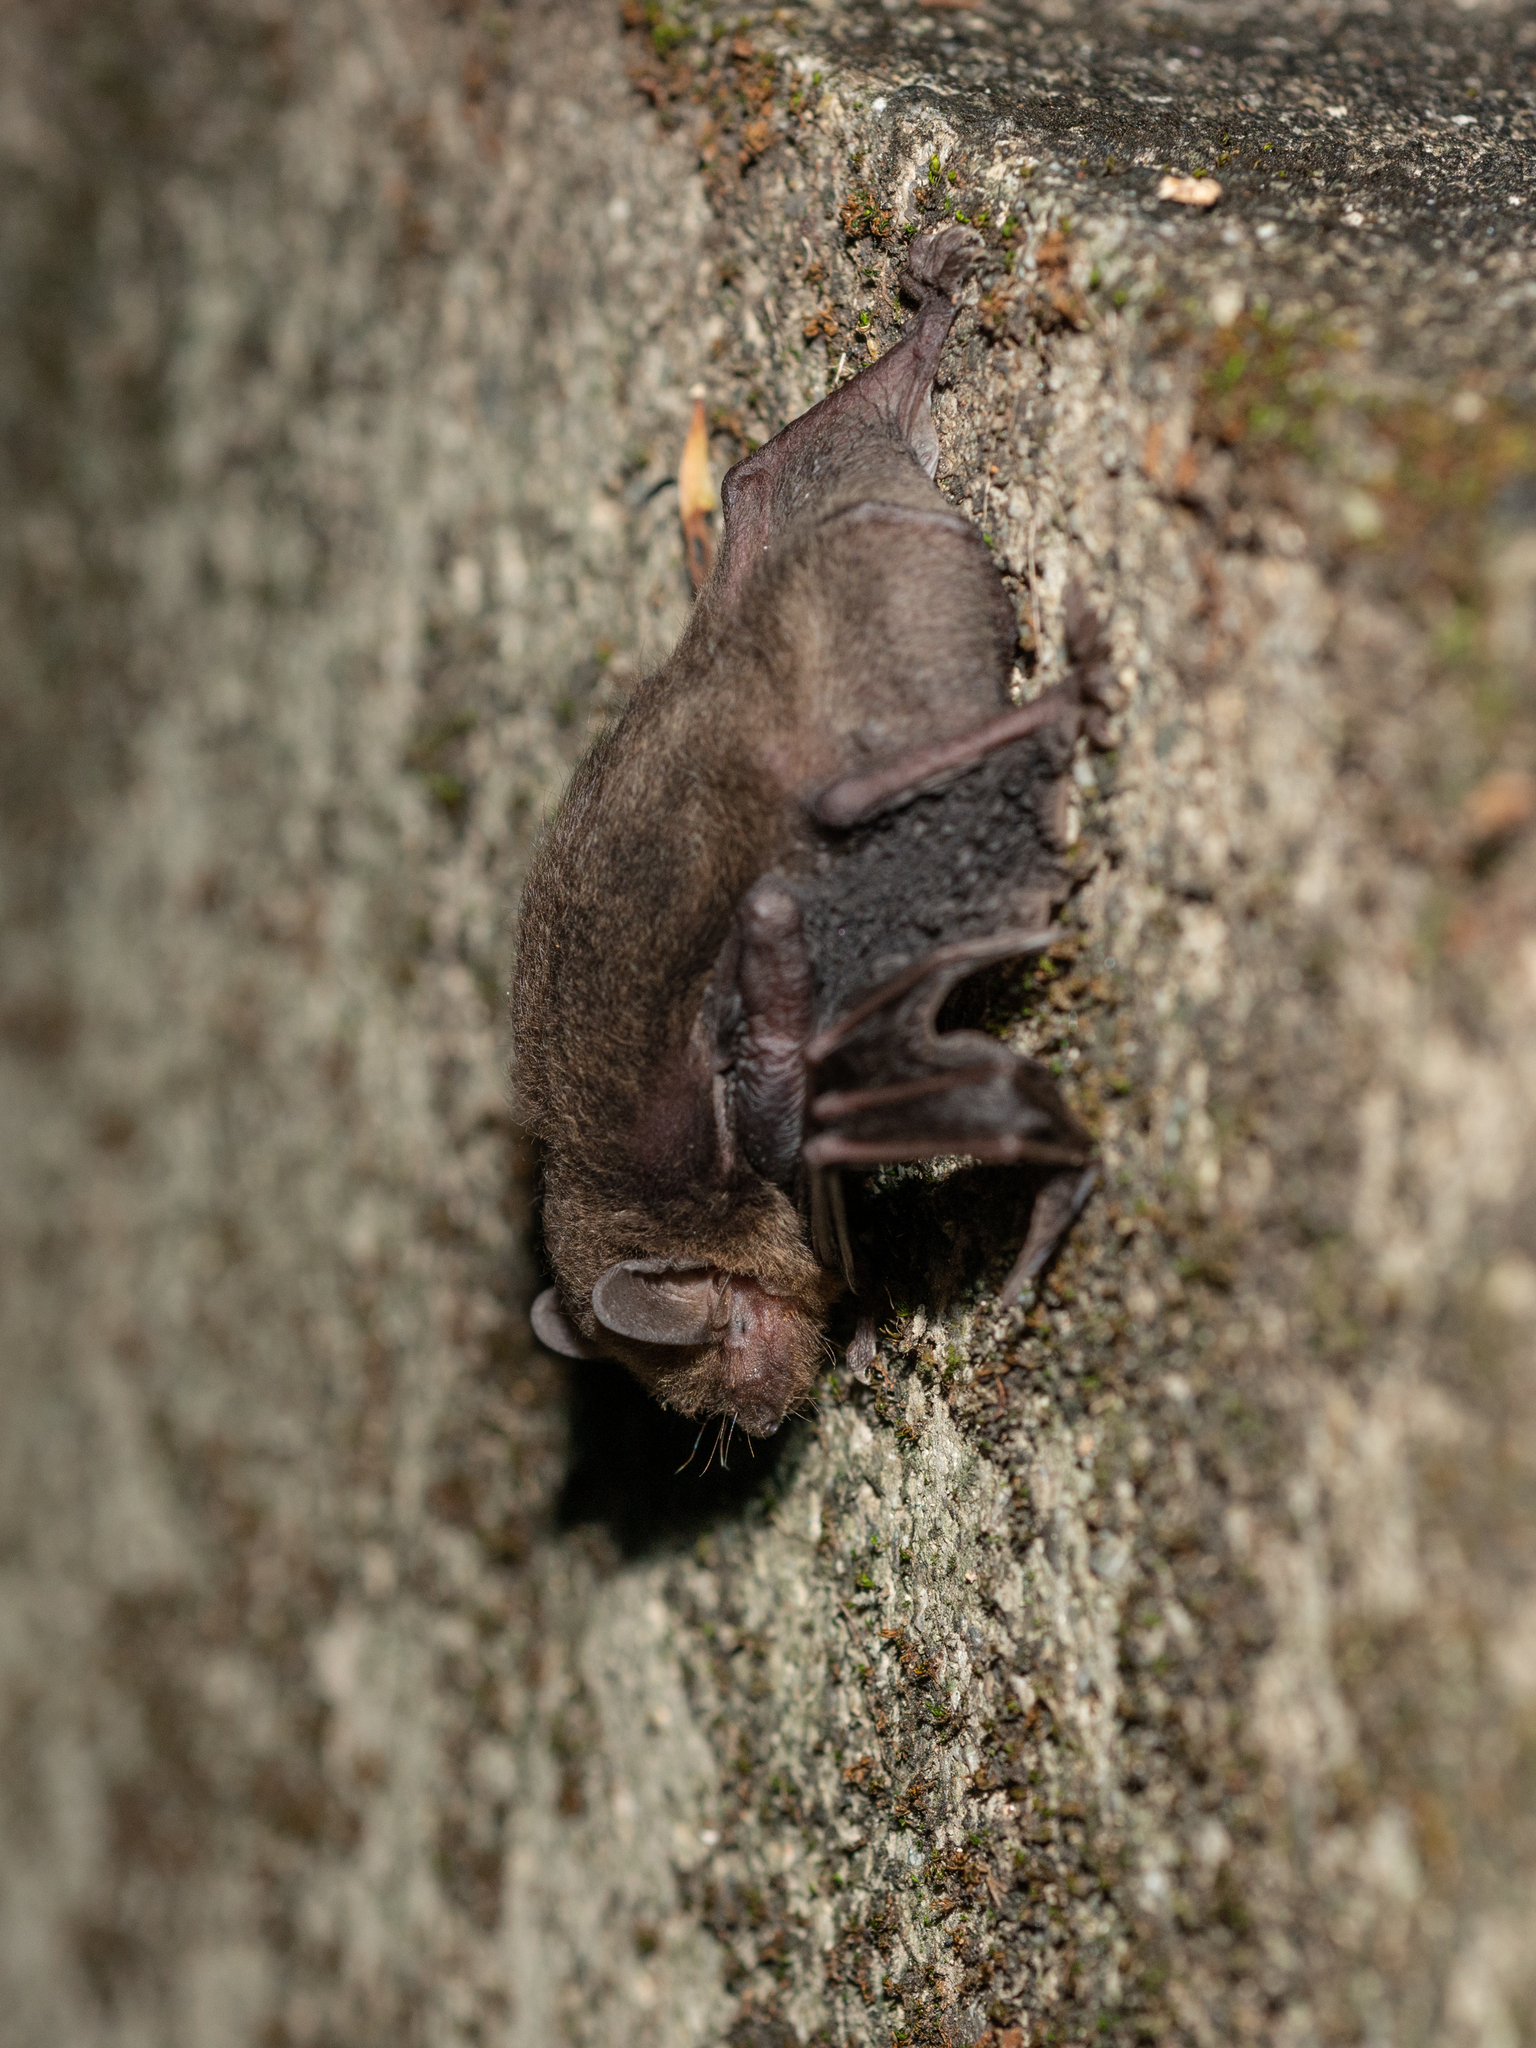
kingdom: Animalia
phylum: Chordata
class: Mammalia
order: Chiroptera
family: Vespertilionidae
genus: Pipistrellus
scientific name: Pipistrellus tenuis
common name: Least pipistrelle
